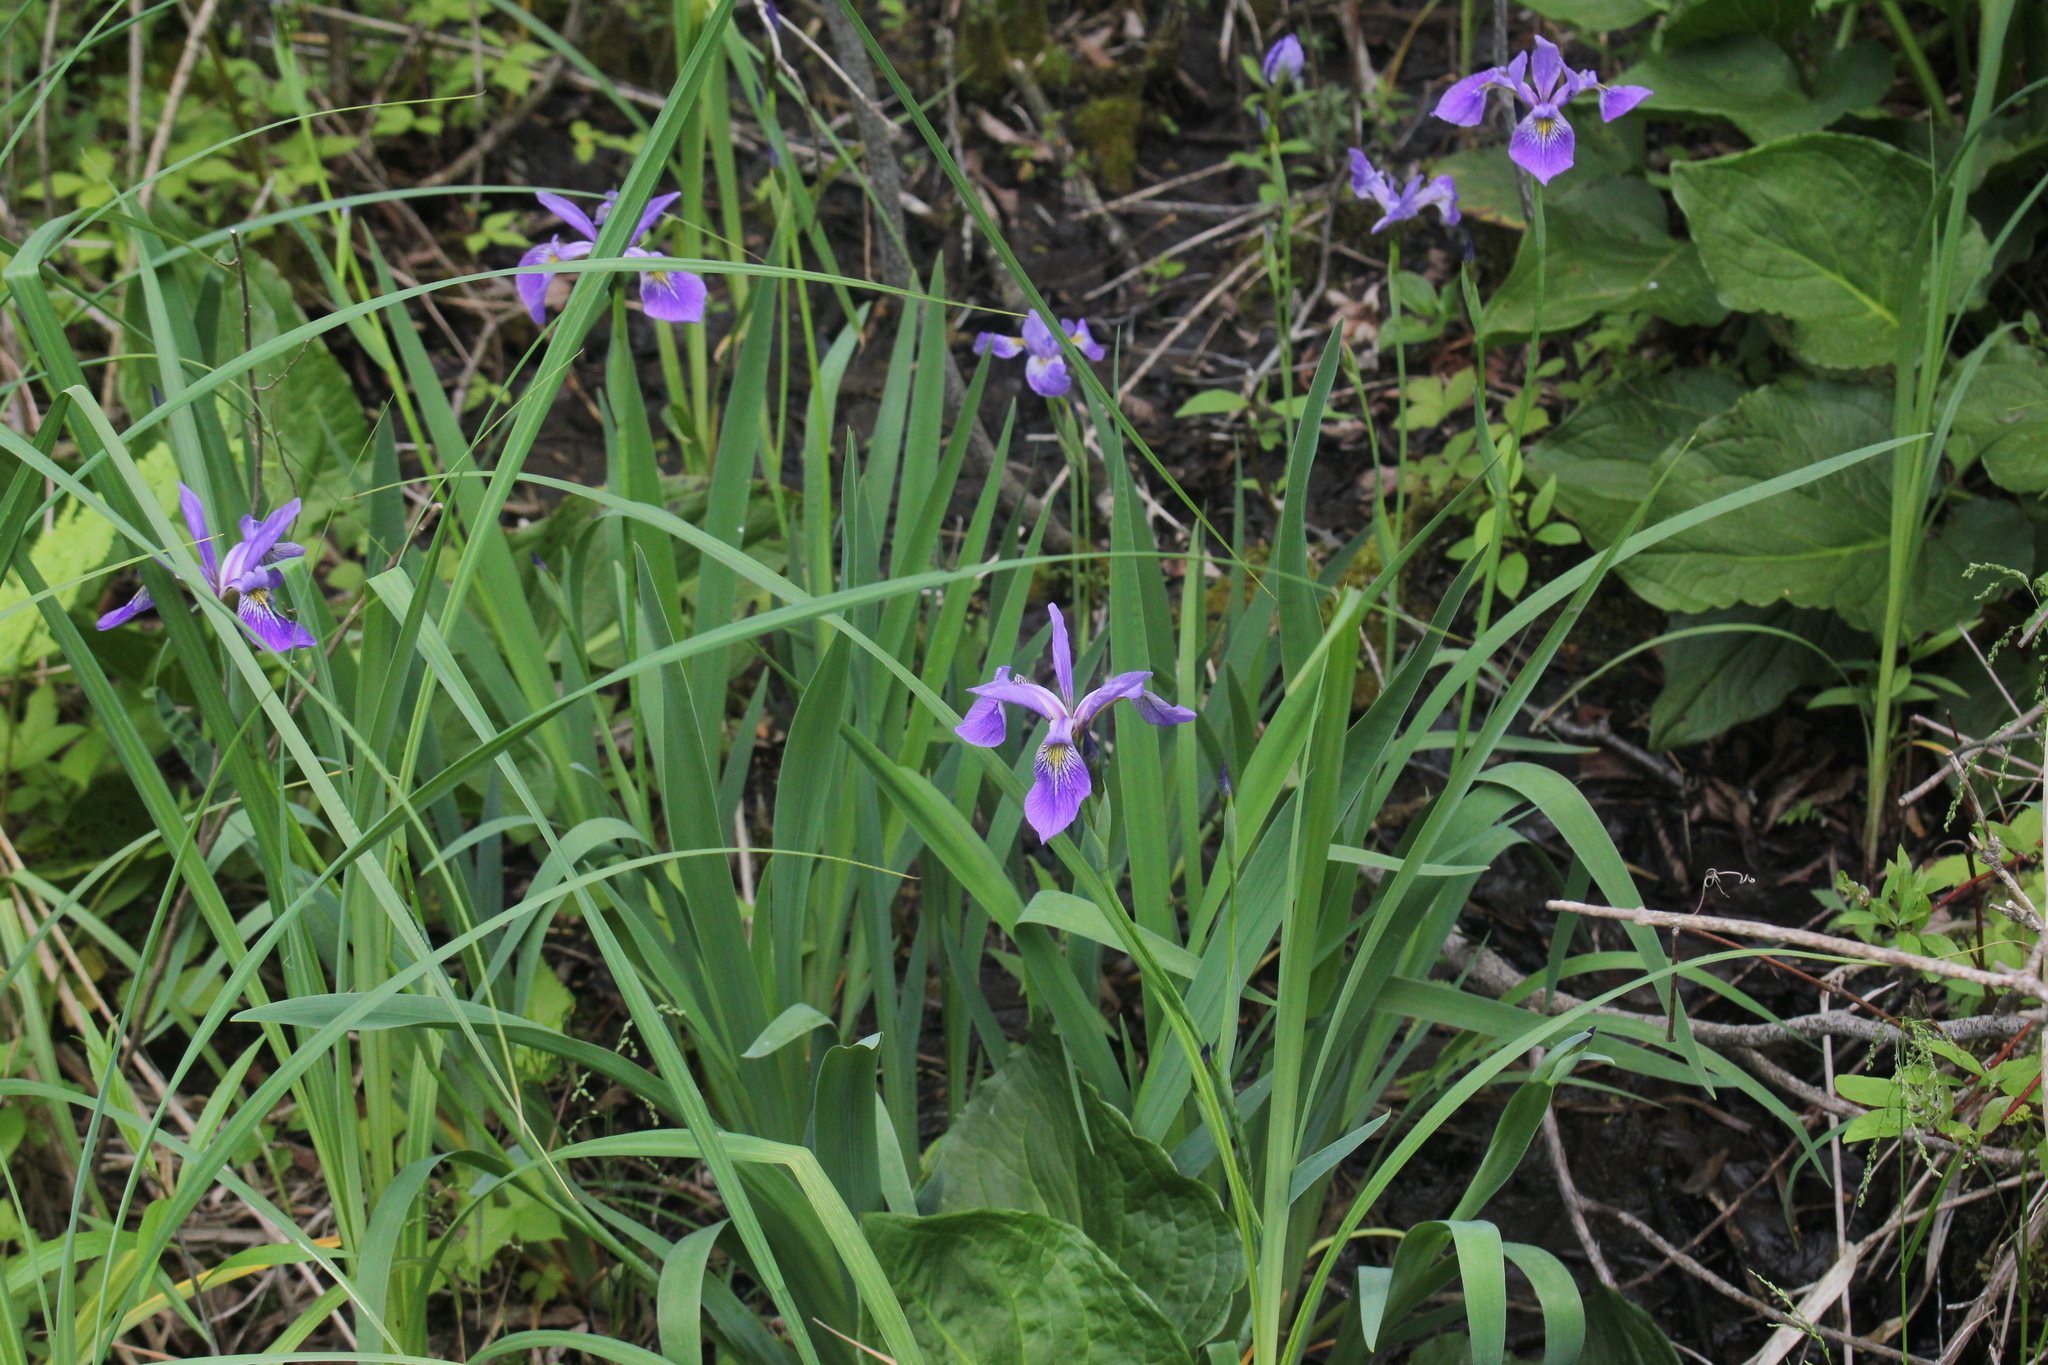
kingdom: Plantae
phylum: Tracheophyta
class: Liliopsida
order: Asparagales
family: Iridaceae
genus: Iris
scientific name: Iris versicolor
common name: Purple iris
